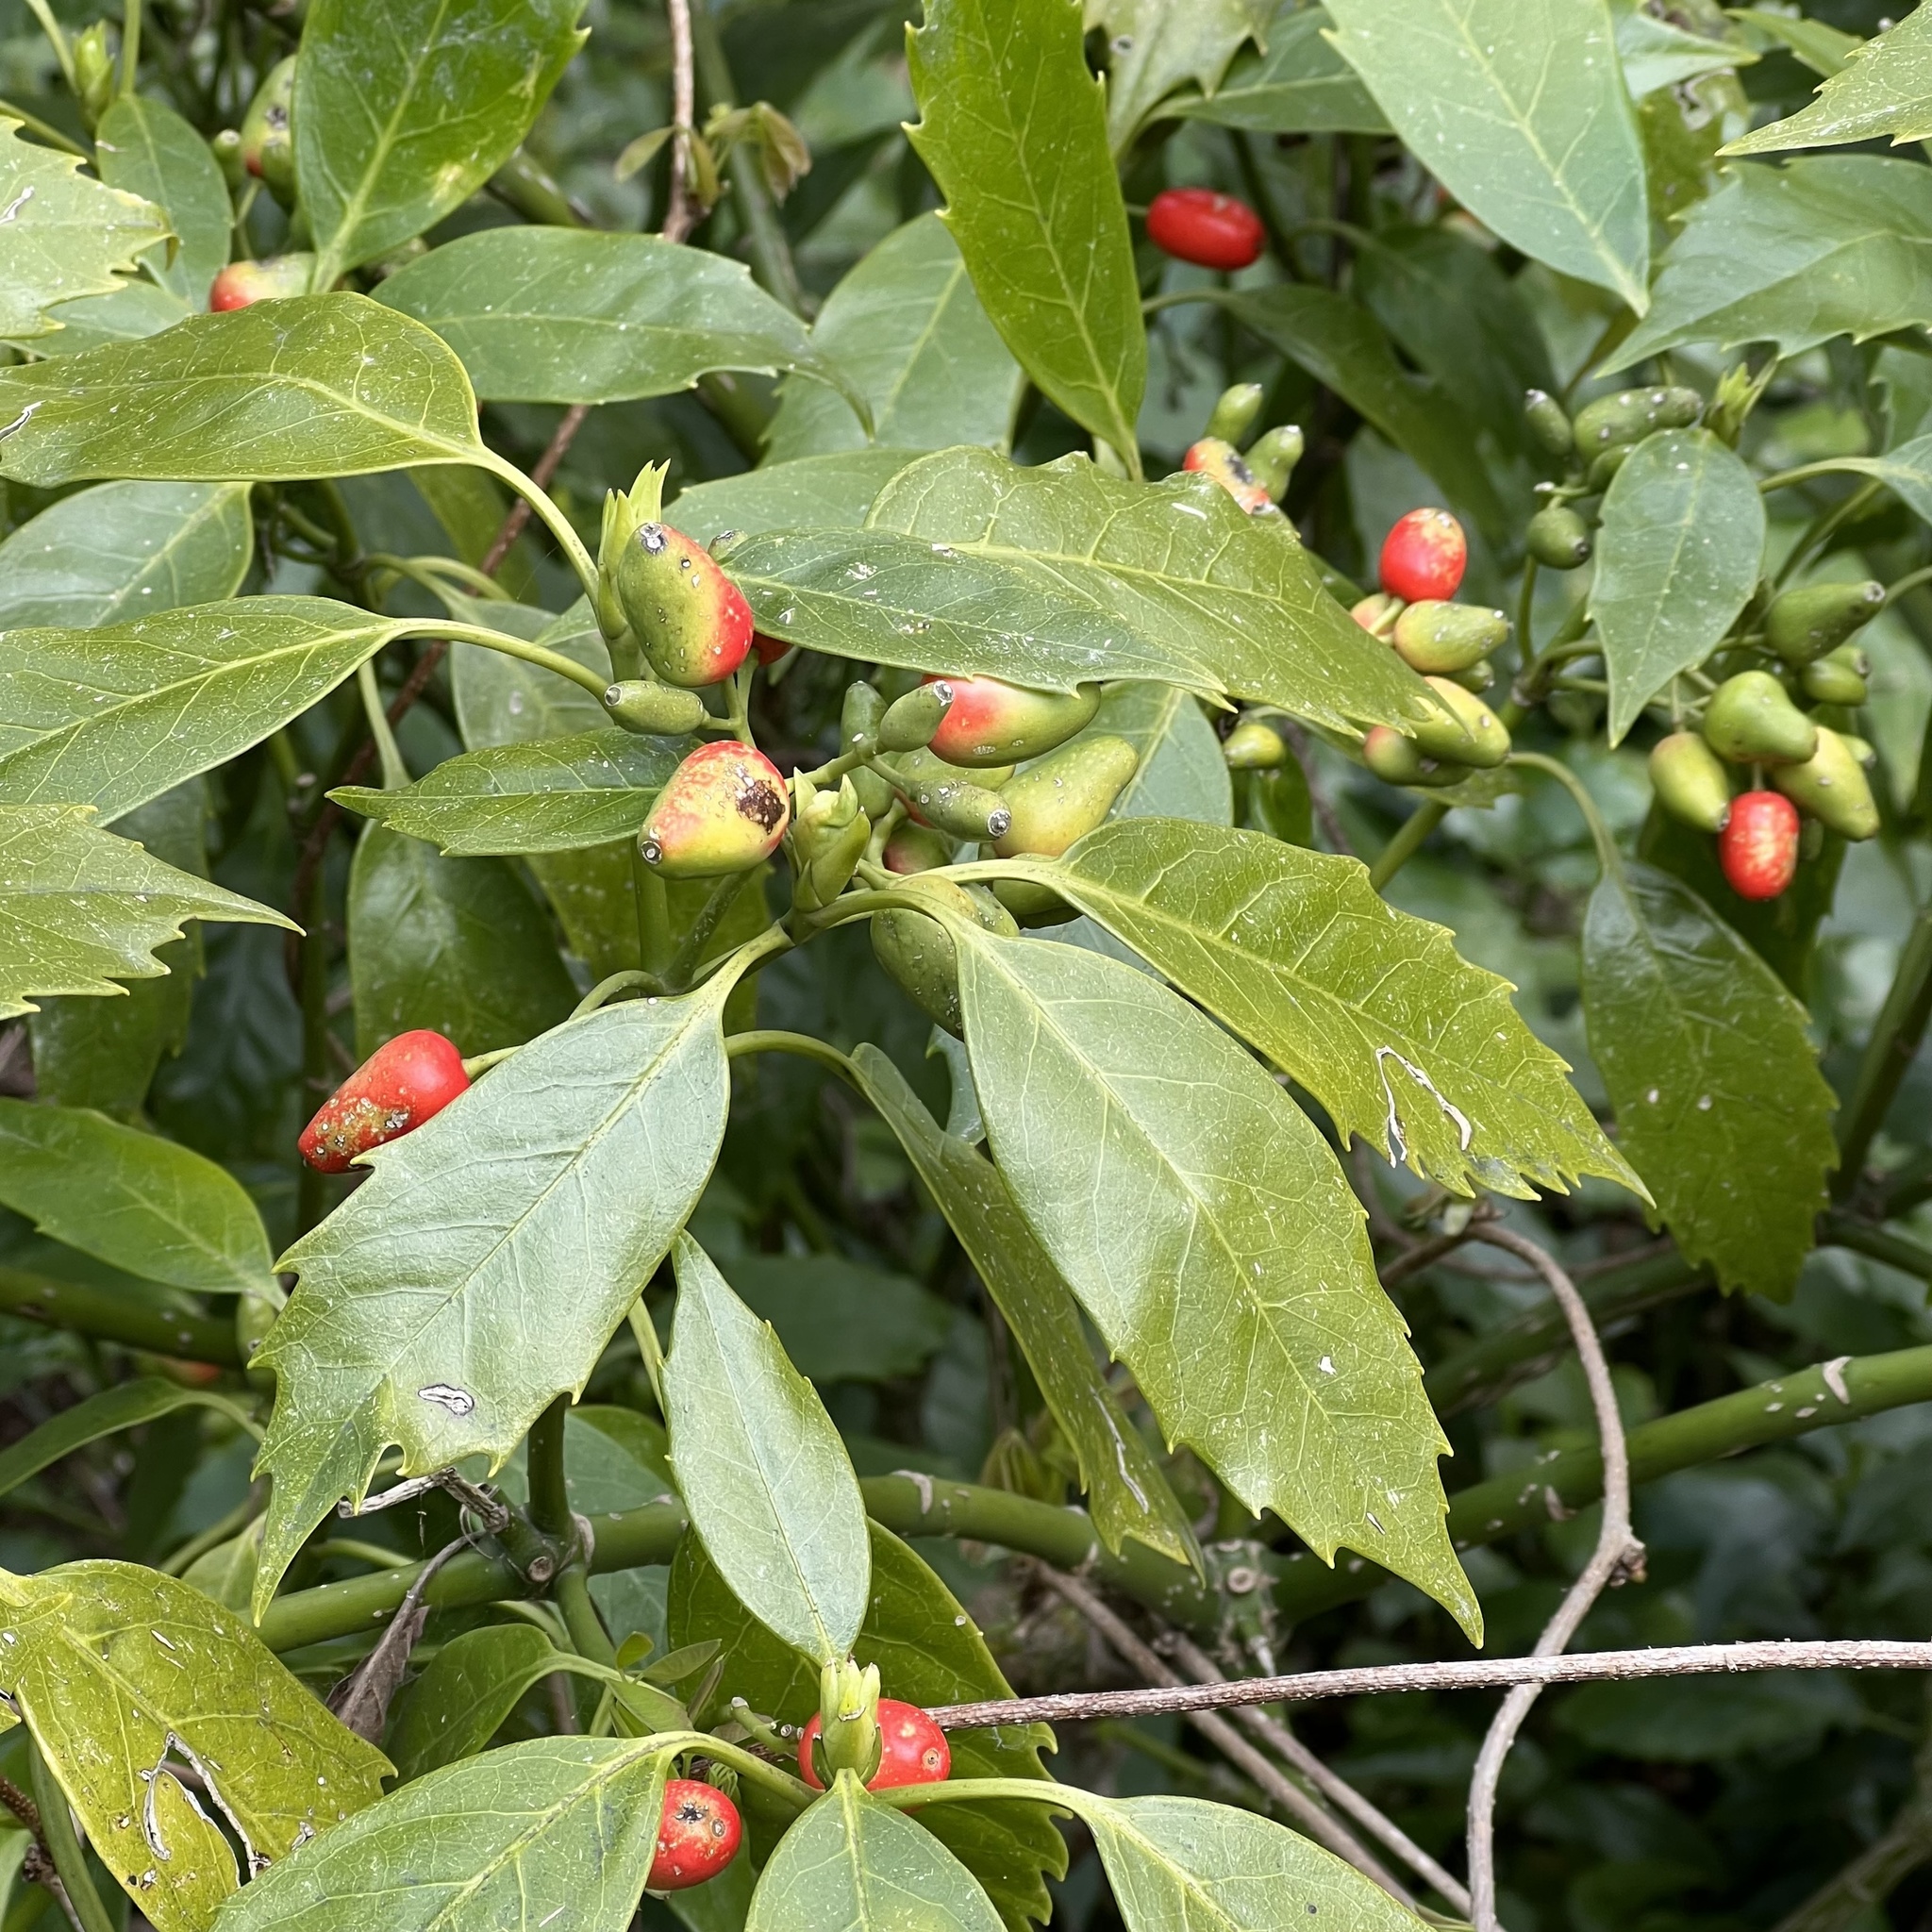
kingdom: Plantae
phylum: Tracheophyta
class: Magnoliopsida
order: Garryales
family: Garryaceae
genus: Aucuba
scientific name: Aucuba japonica
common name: Spotted-laurel
